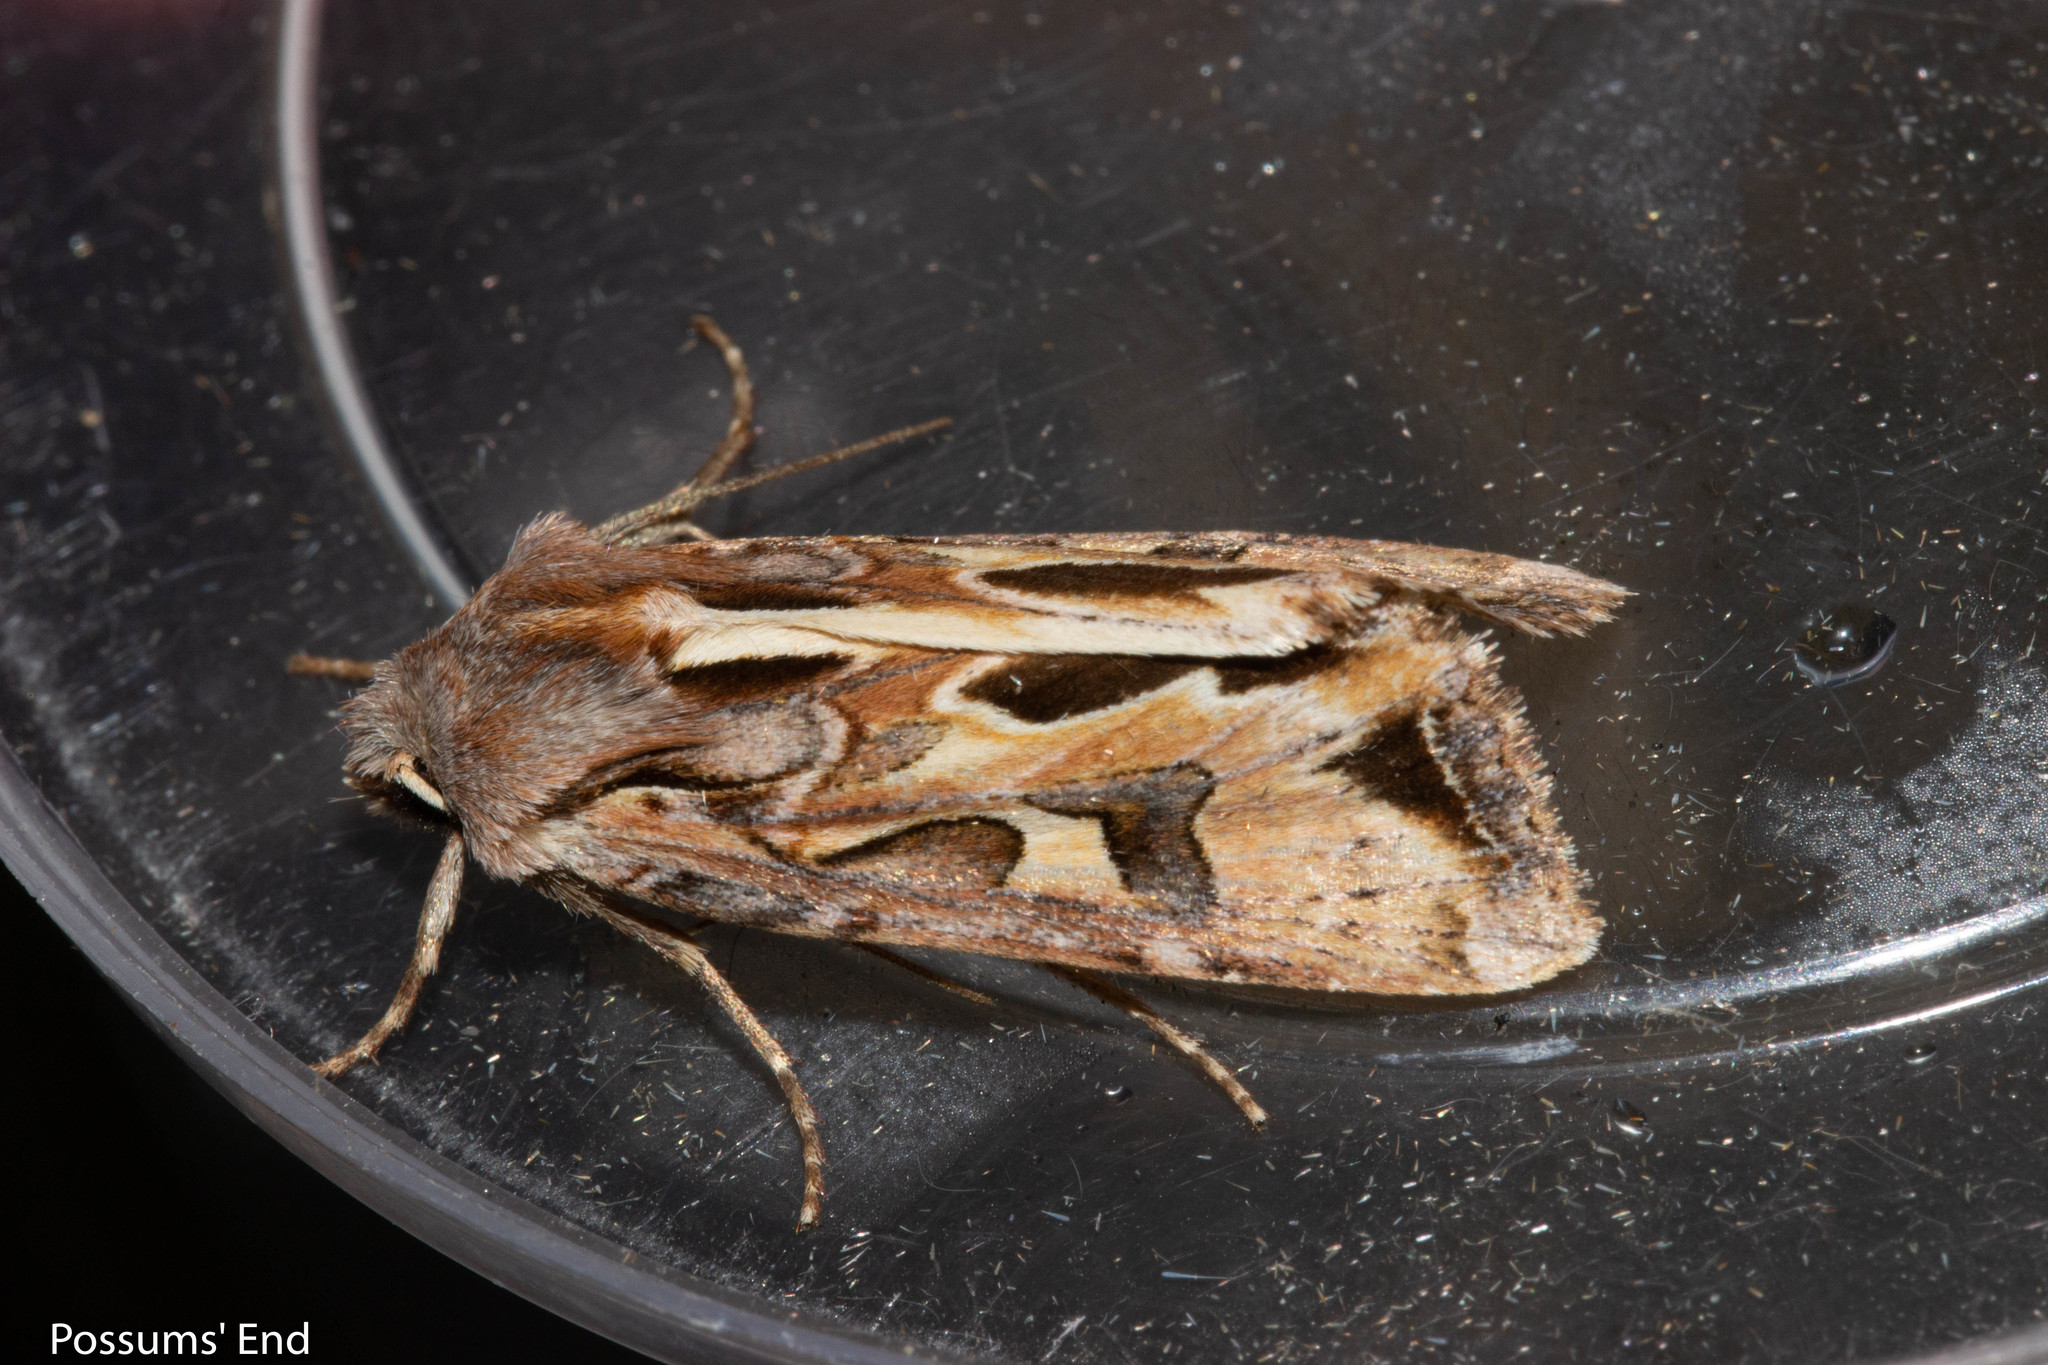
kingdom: Animalia
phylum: Arthropoda
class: Insecta
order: Lepidoptera
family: Noctuidae
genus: Ichneutica
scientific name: Ichneutica
